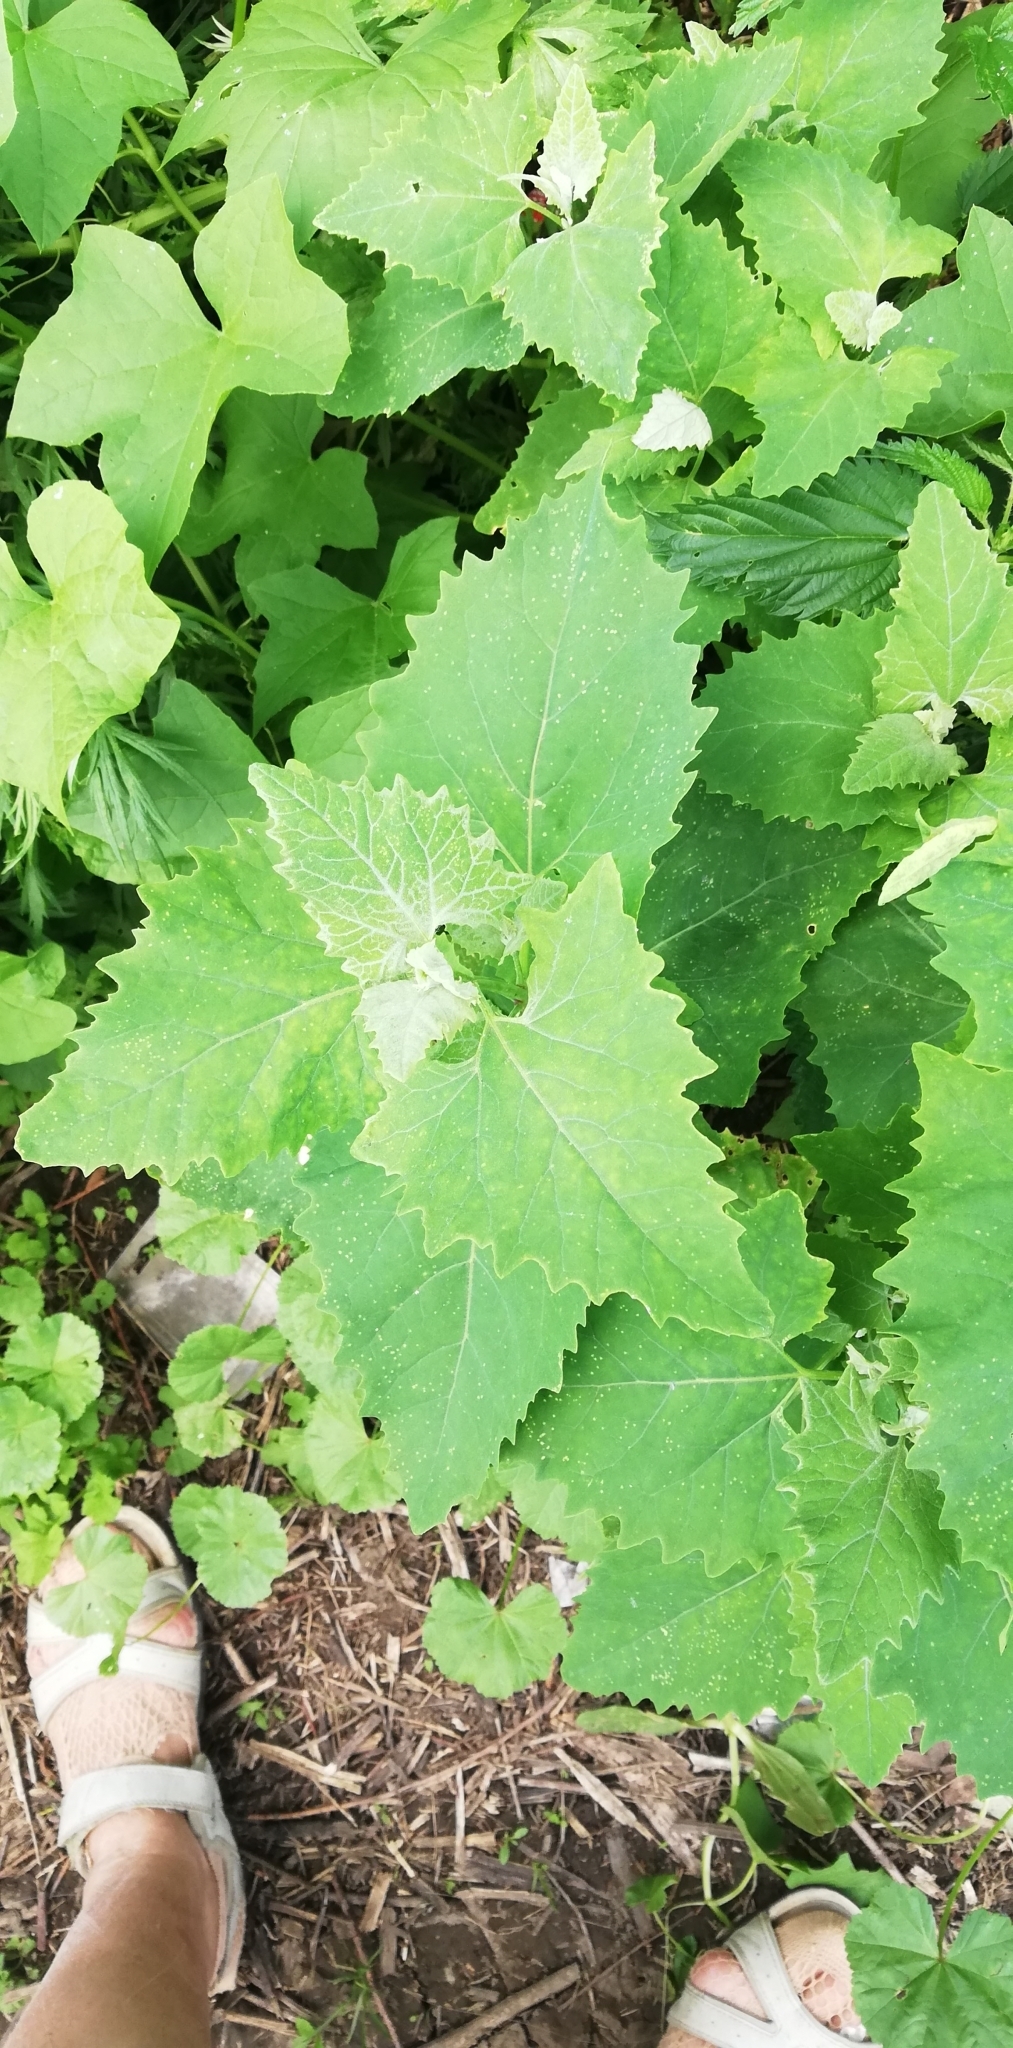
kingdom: Plantae
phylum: Tracheophyta
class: Magnoliopsida
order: Caryophyllales
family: Amaranthaceae
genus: Atriplex
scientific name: Atriplex sagittata
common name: Purple orache
